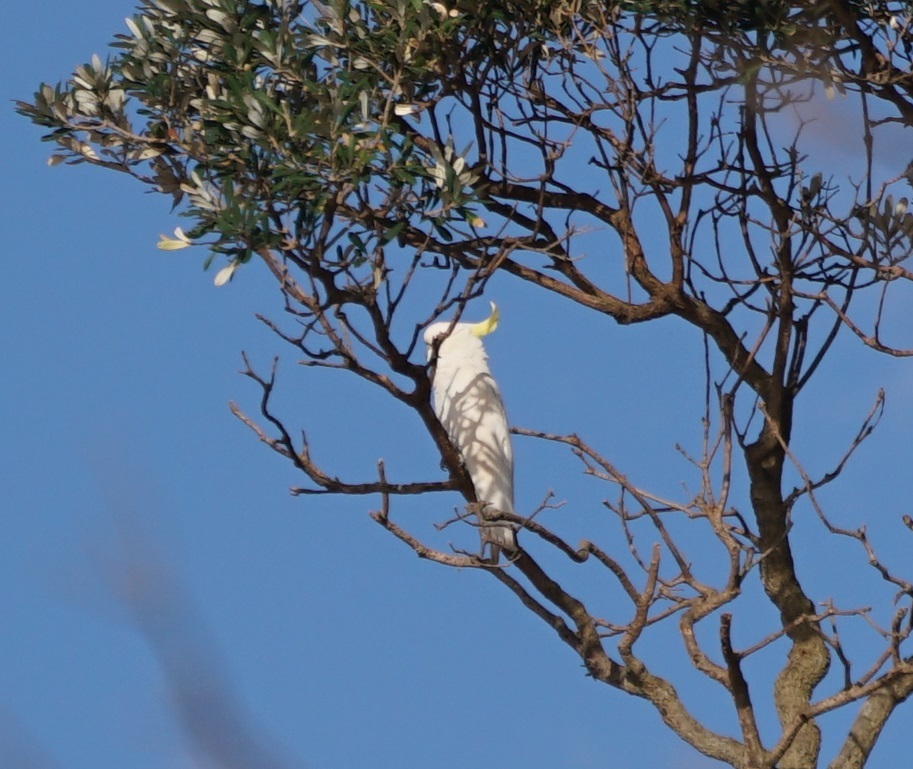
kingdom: Animalia
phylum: Chordata
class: Aves
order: Psittaciformes
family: Psittacidae
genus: Cacatua
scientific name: Cacatua galerita
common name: Sulphur-crested cockatoo
